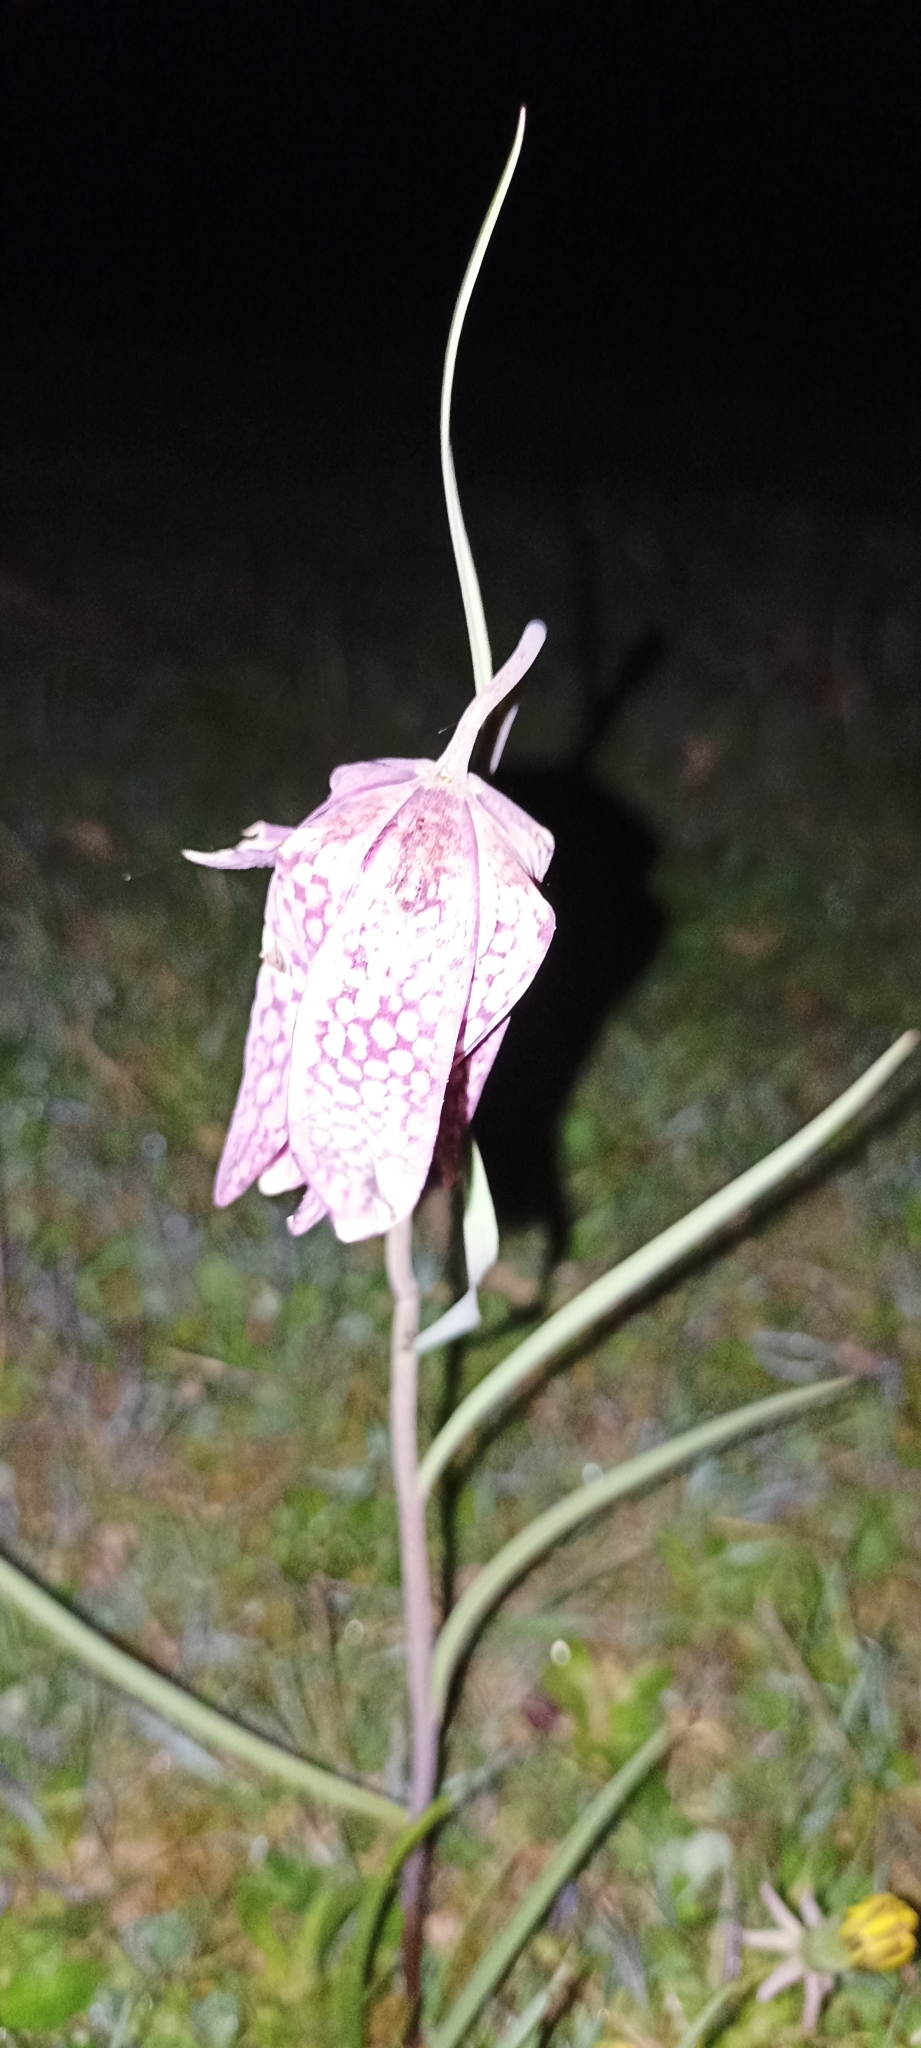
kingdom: Plantae
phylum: Tracheophyta
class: Liliopsida
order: Liliales
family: Liliaceae
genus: Fritillaria
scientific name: Fritillaria meleagris
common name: Fritillary
